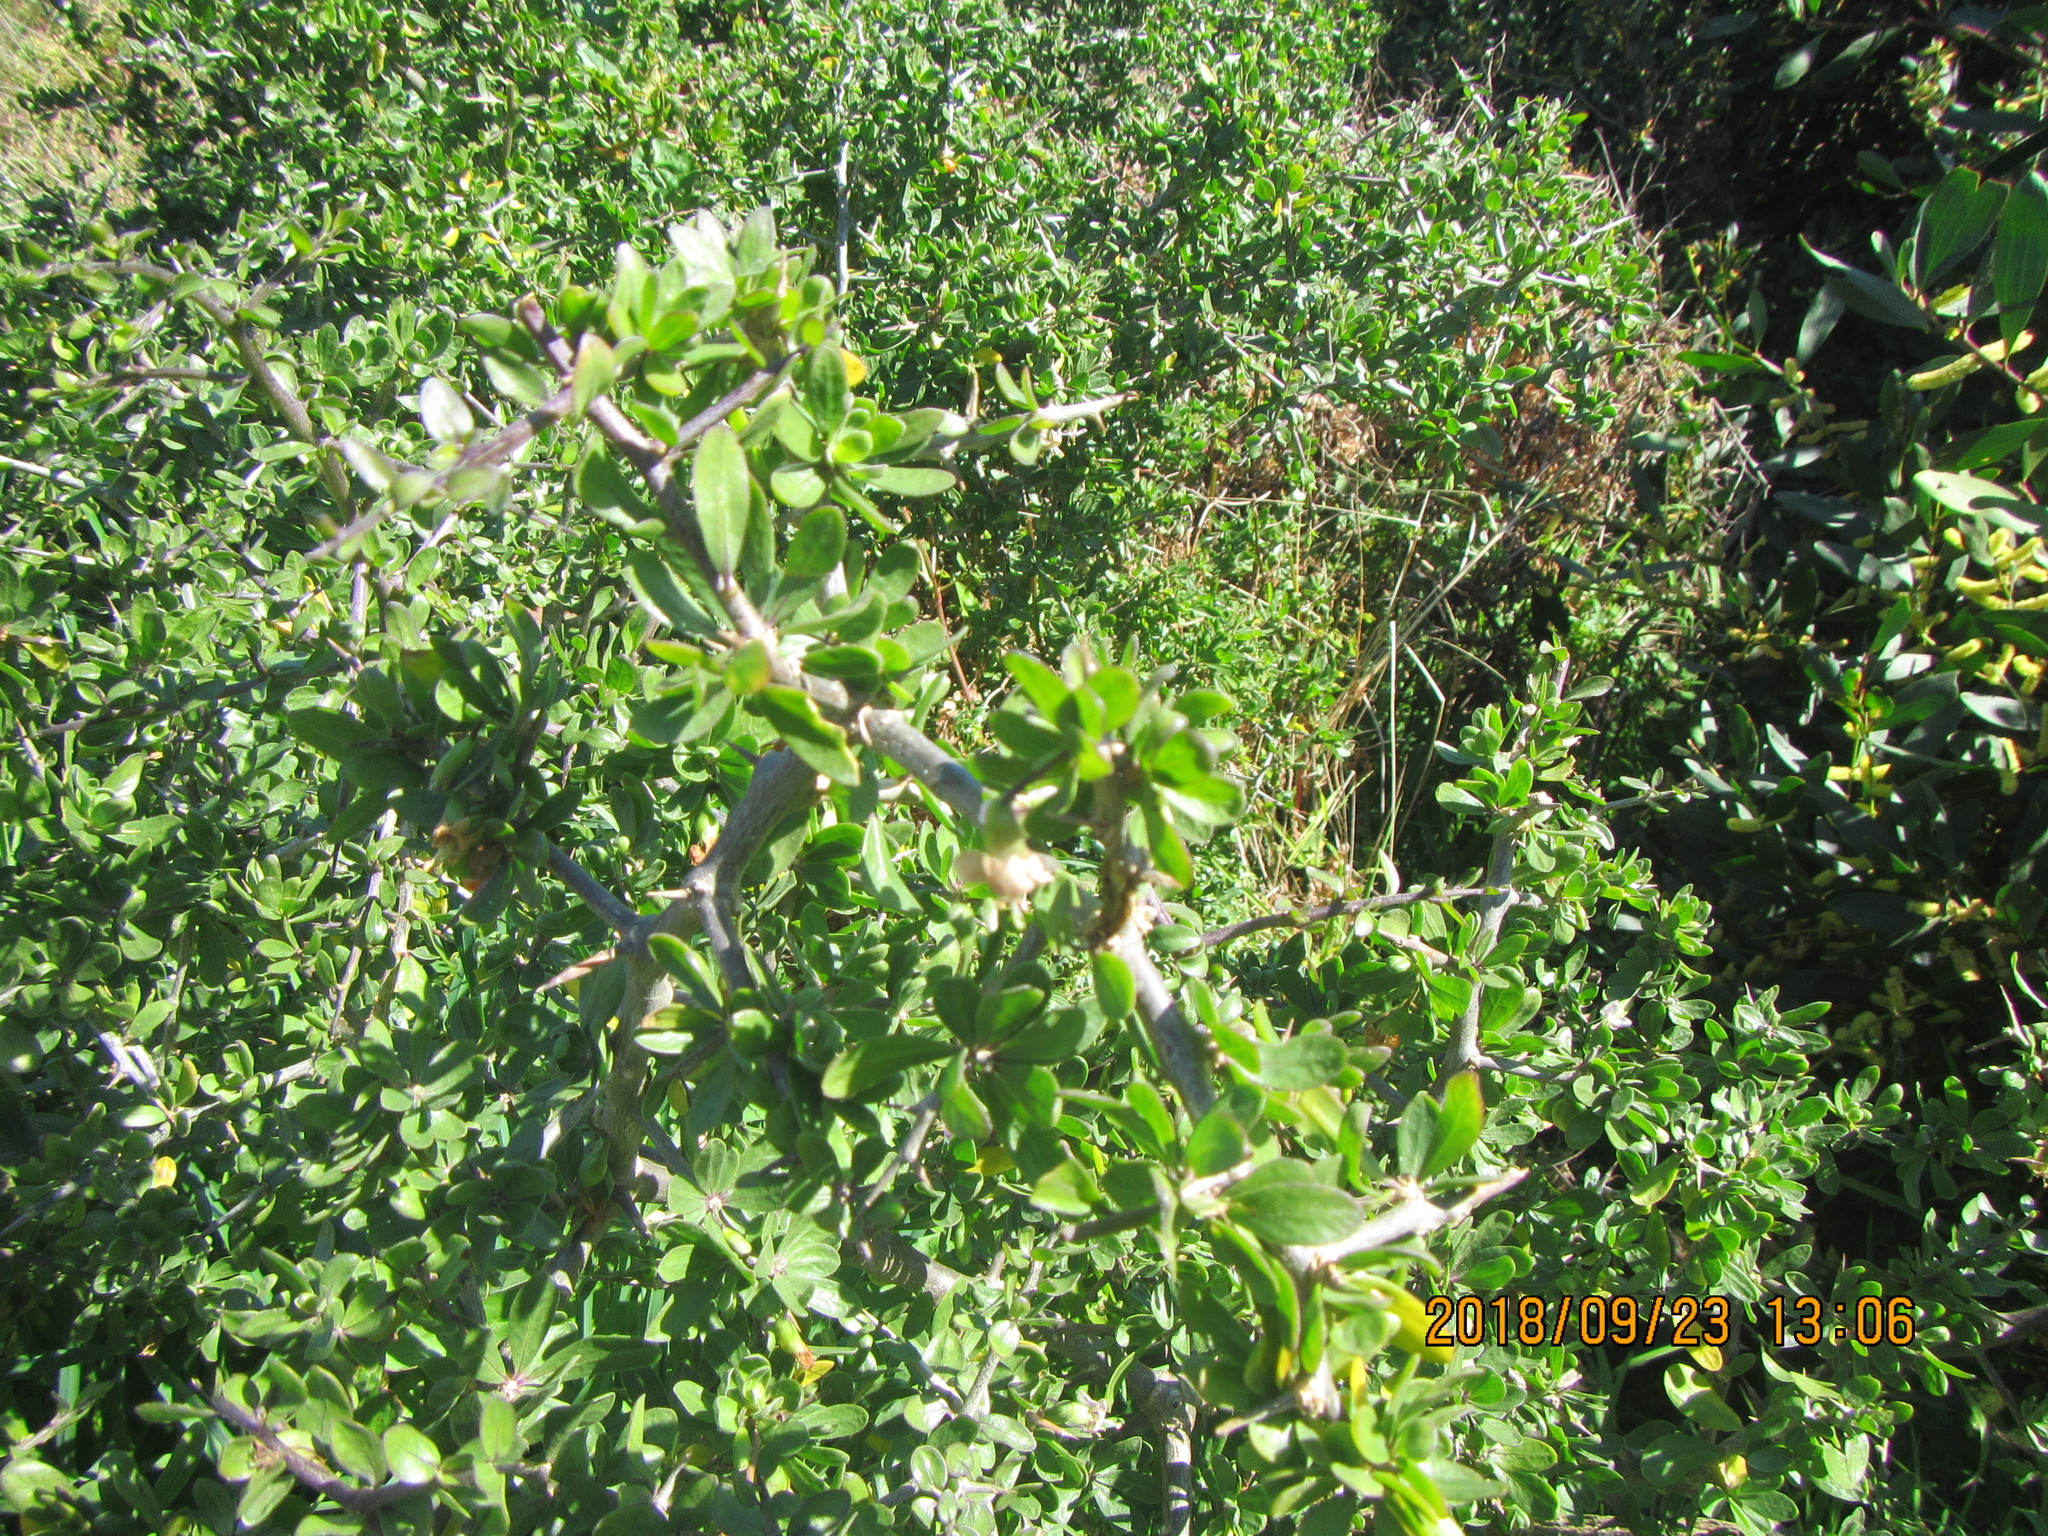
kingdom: Plantae
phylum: Tracheophyta
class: Magnoliopsida
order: Solanales
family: Solanaceae
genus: Lycium
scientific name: Lycium ferocissimum
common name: African boxthorn
